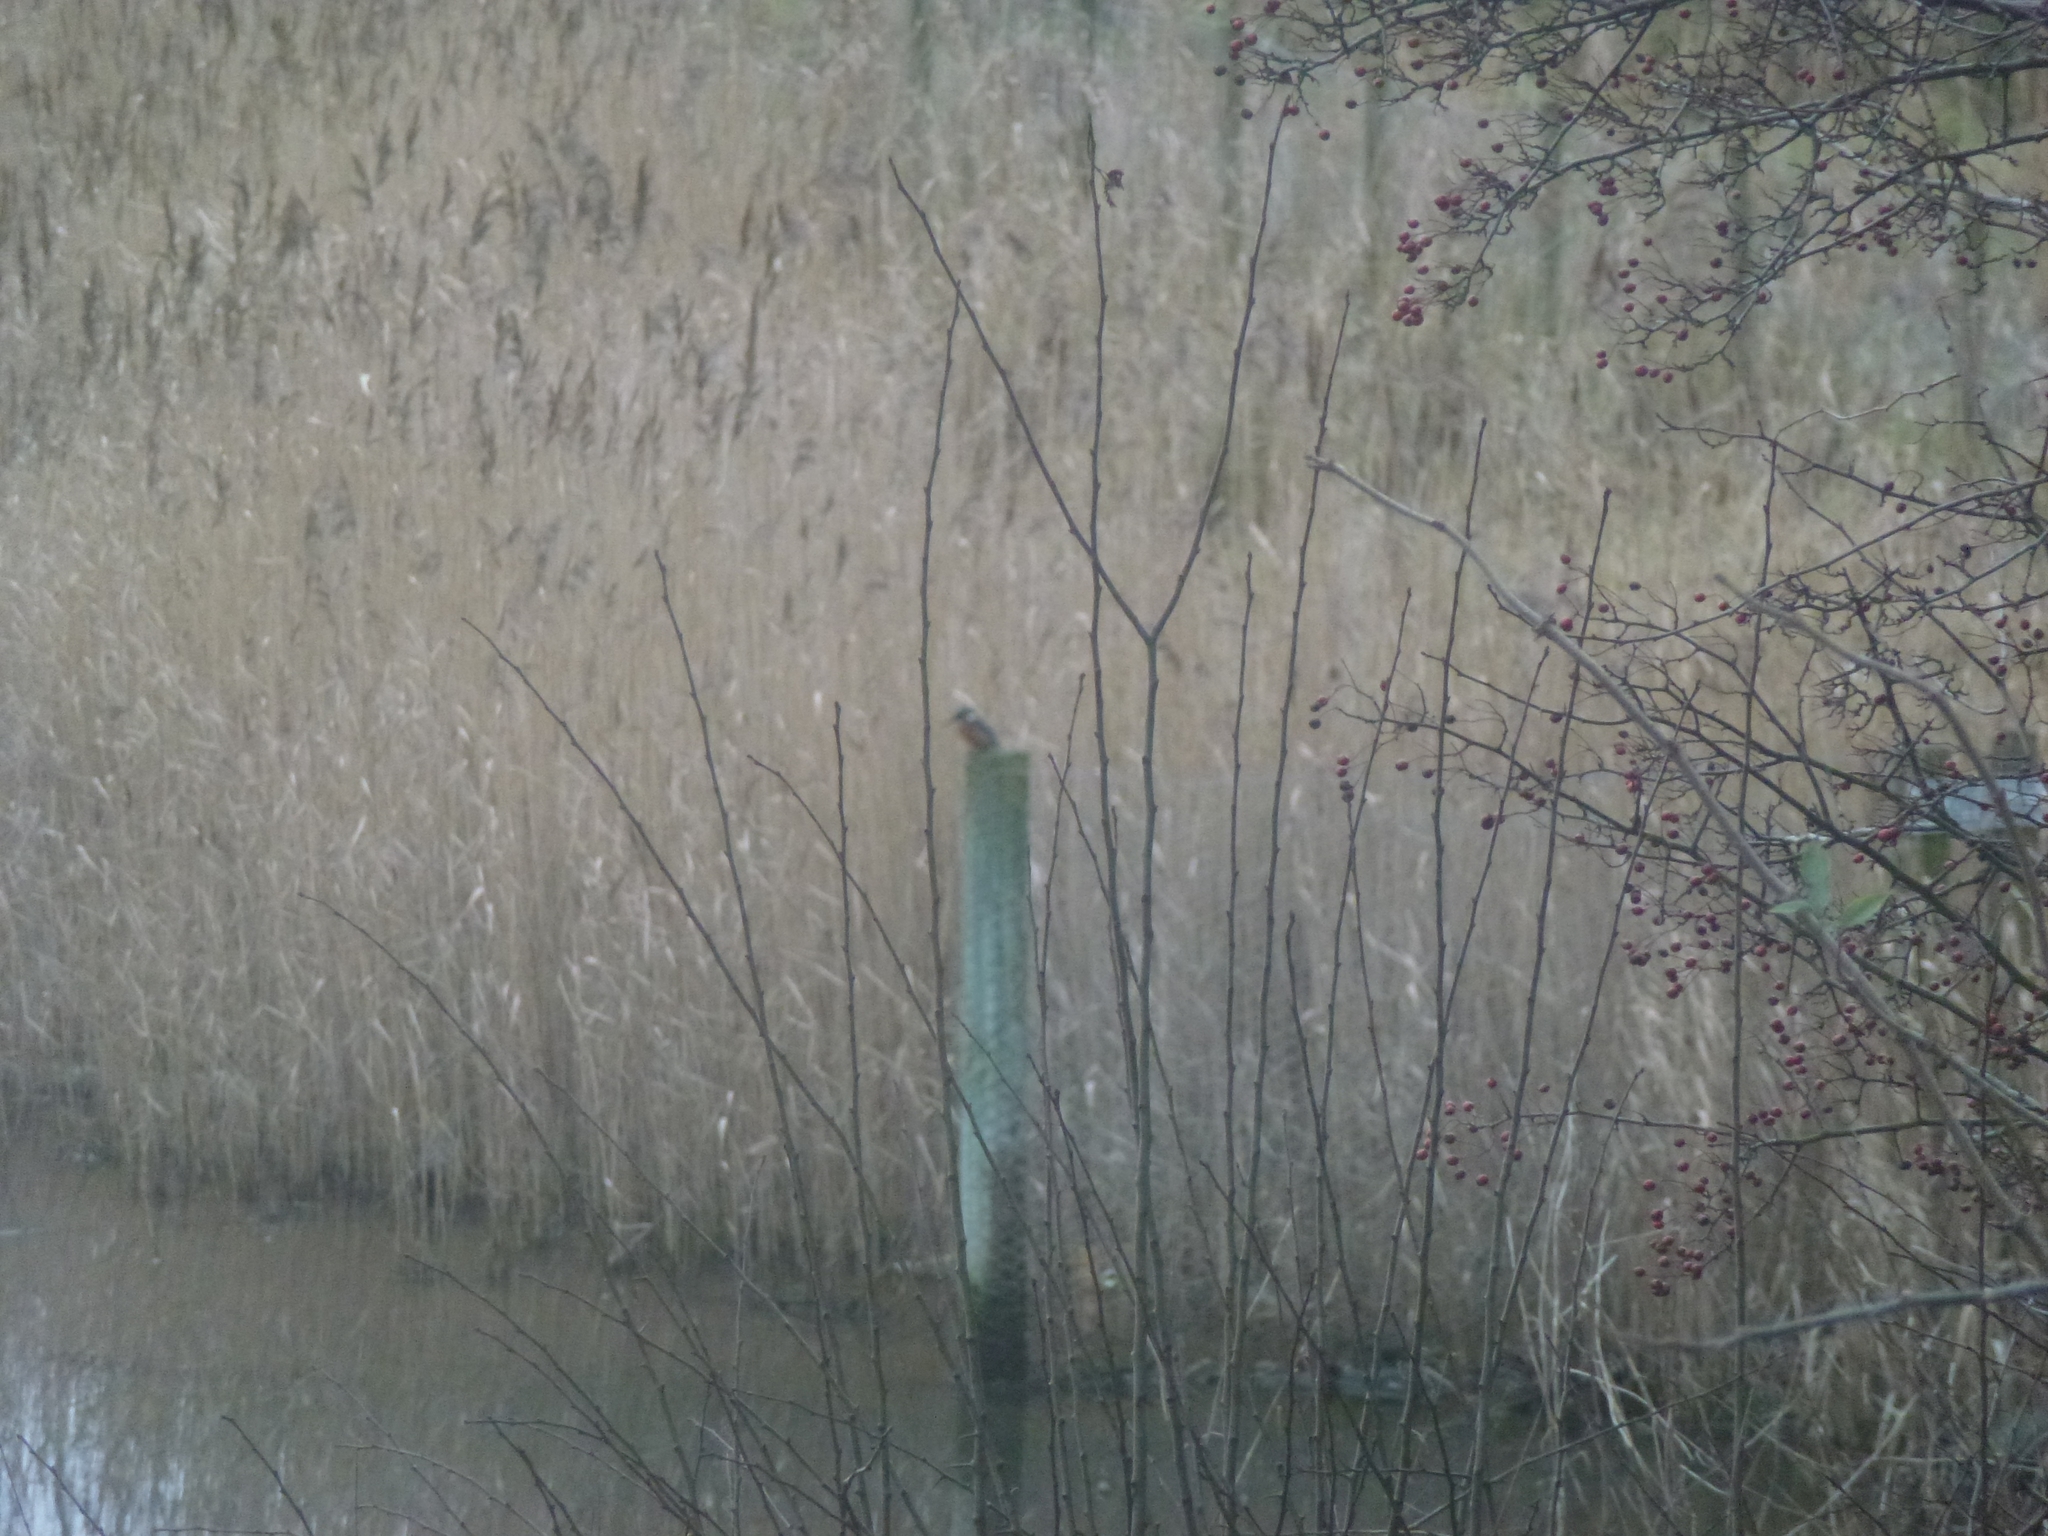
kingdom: Animalia
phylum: Chordata
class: Aves
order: Coraciiformes
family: Alcedinidae
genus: Alcedo
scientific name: Alcedo atthis
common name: Common kingfisher
